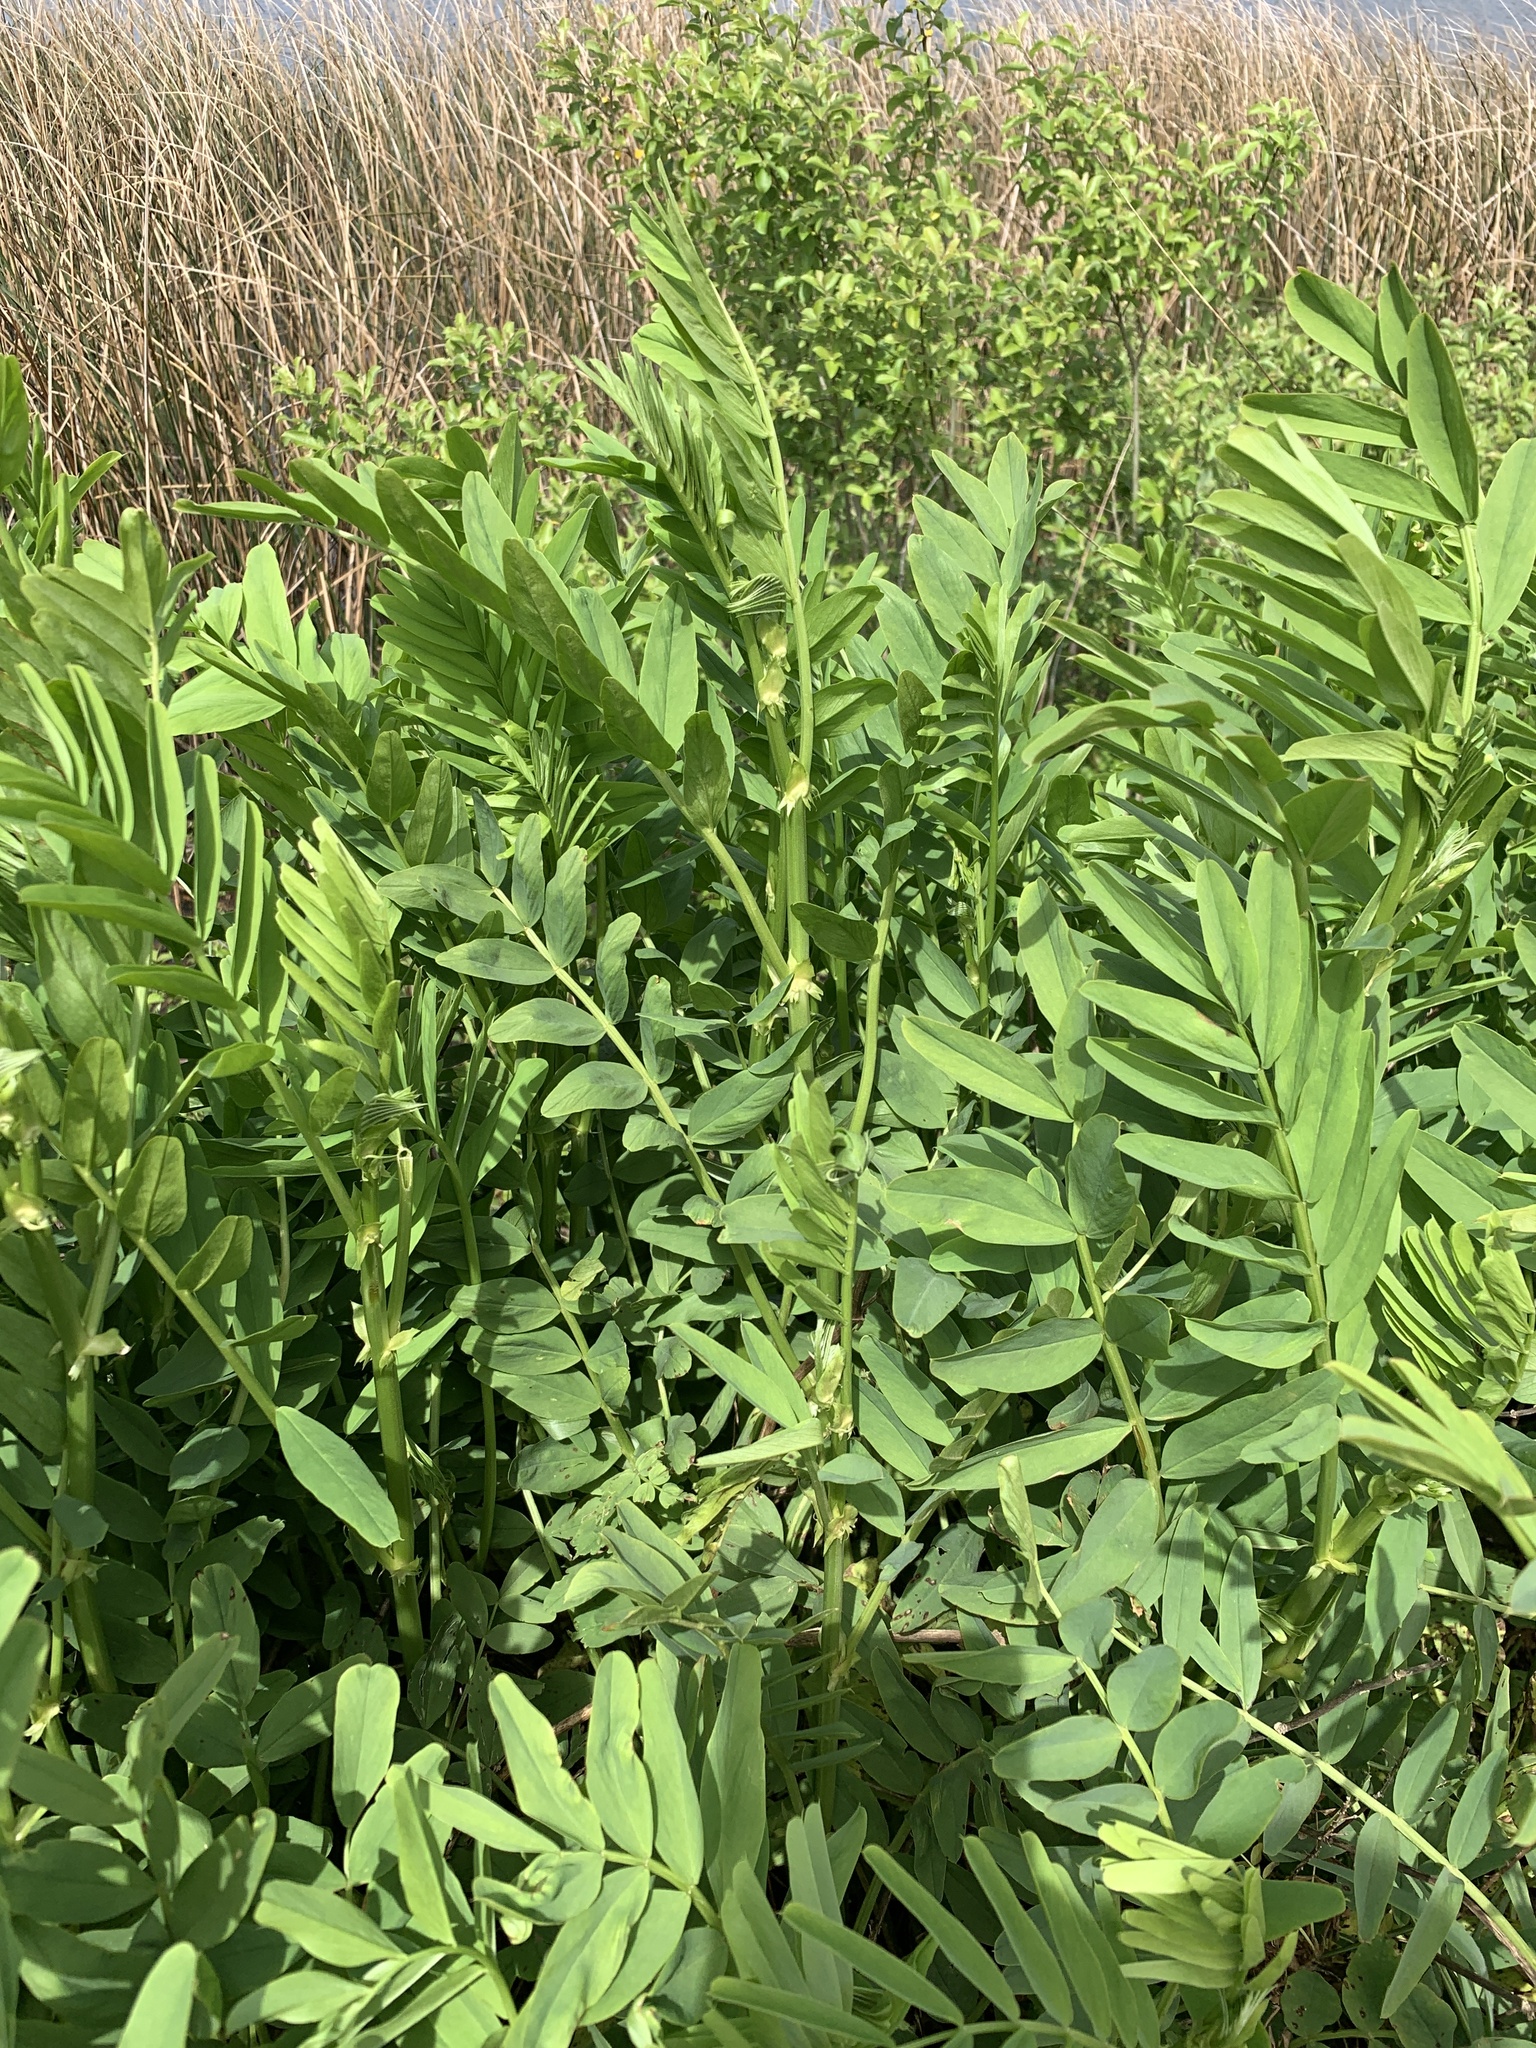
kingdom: Plantae
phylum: Tracheophyta
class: Magnoliopsida
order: Fabales
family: Fabaceae
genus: Galega
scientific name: Galega officinalis
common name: Goat's-rue
